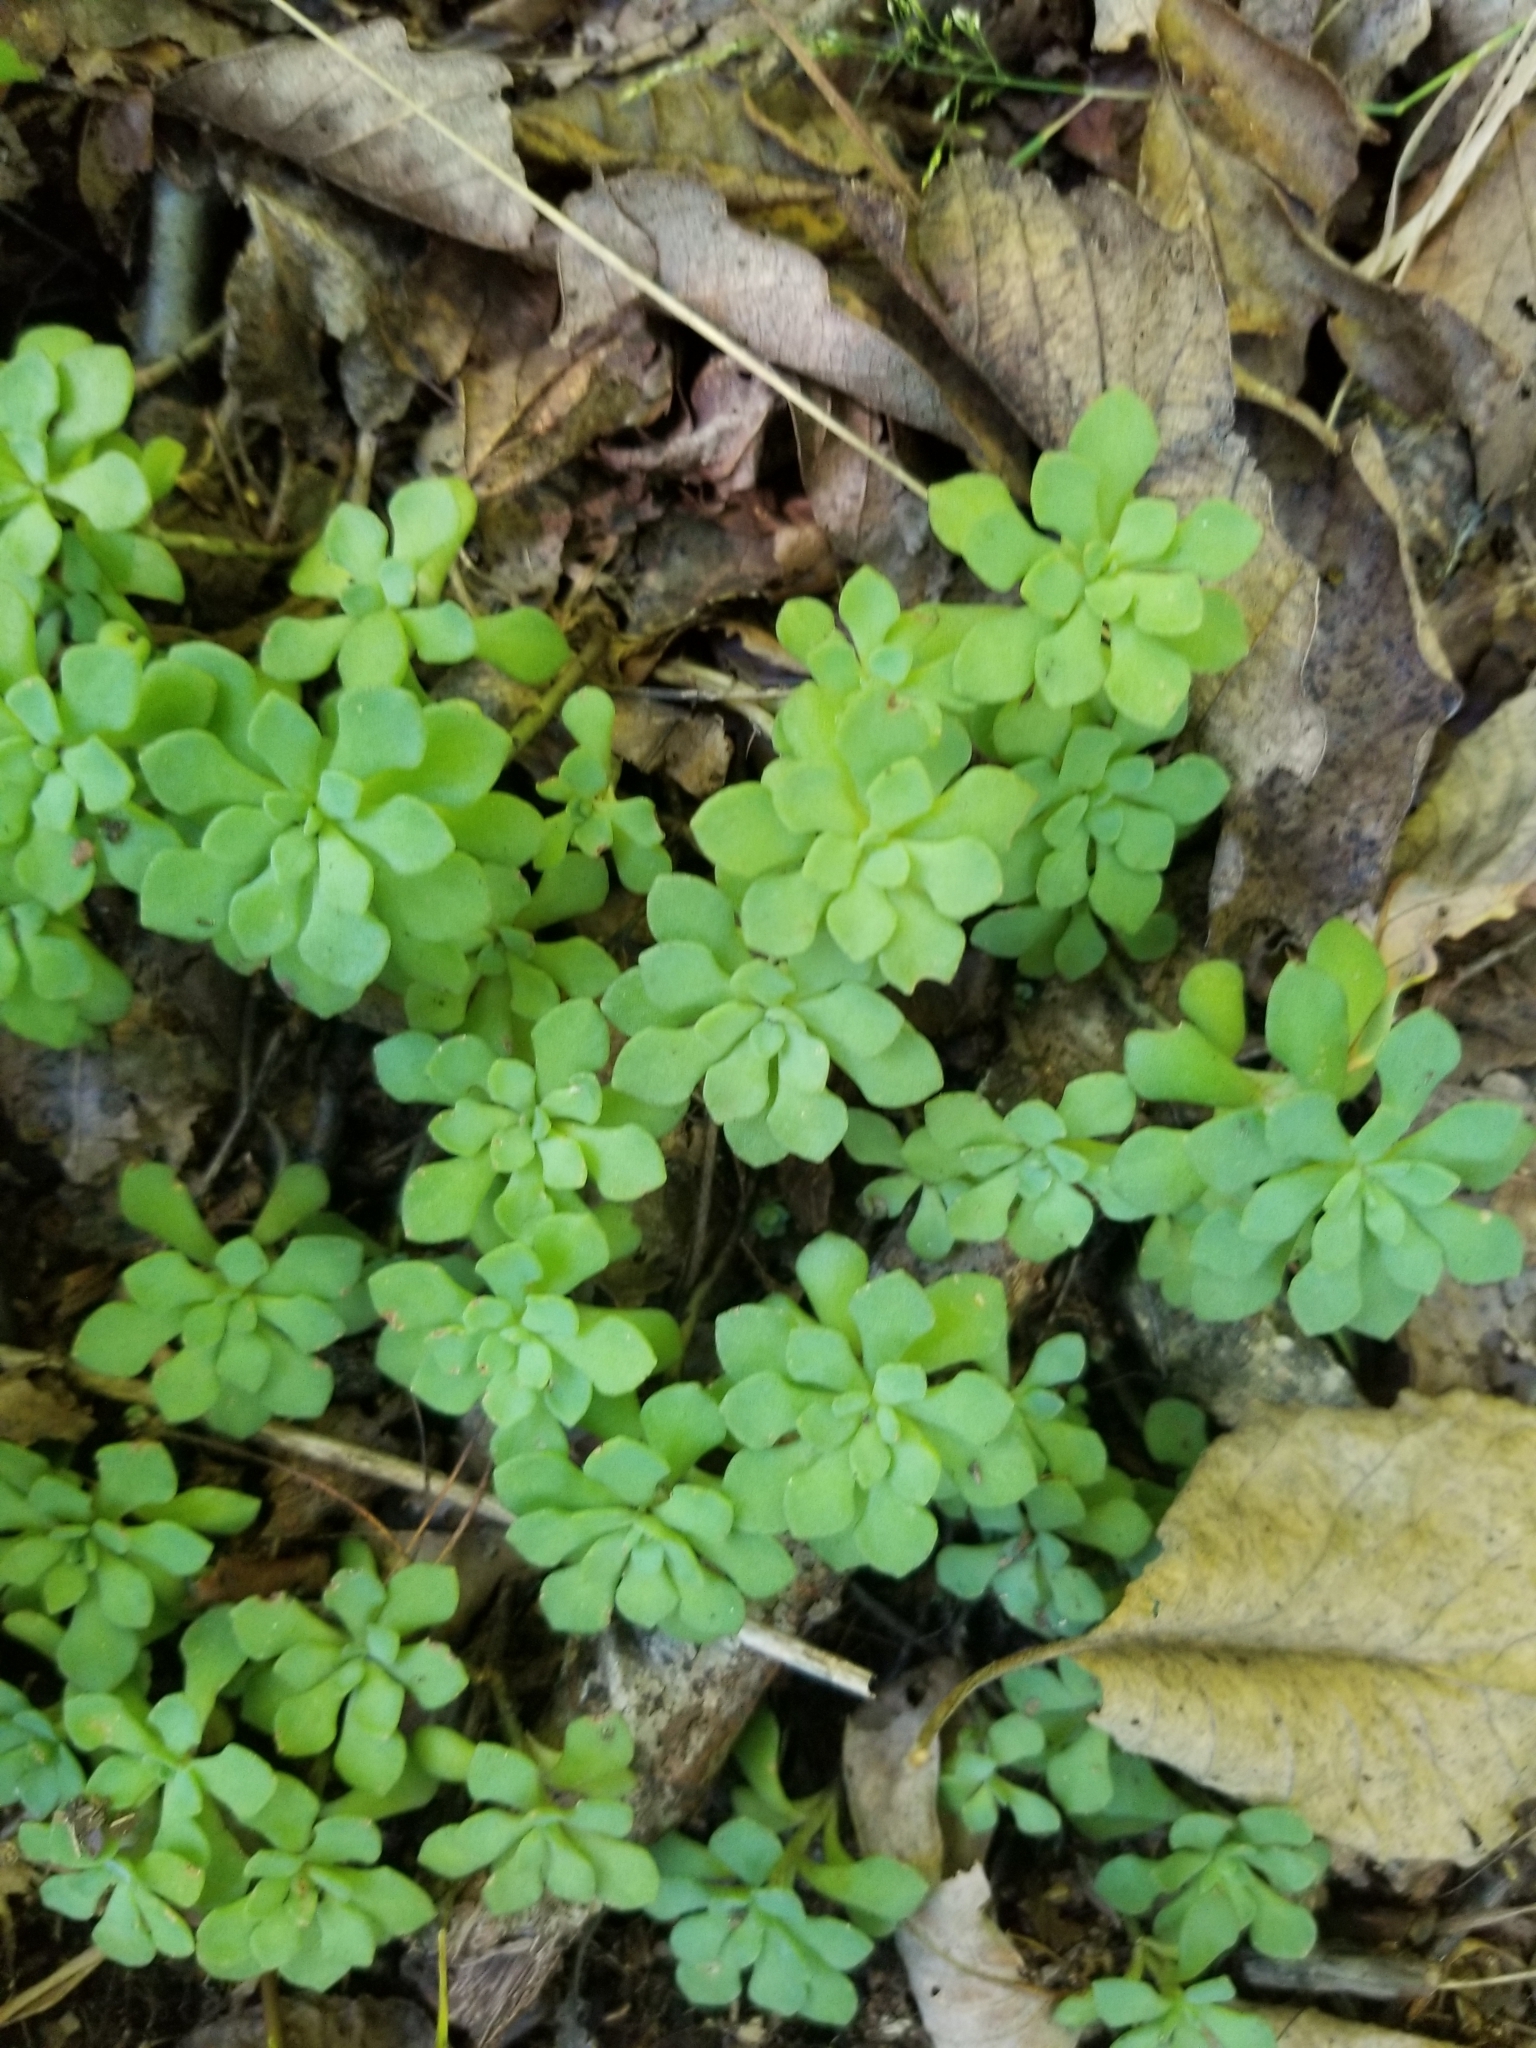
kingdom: Plantae
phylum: Tracheophyta
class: Magnoliopsida
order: Saxifragales
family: Crassulaceae
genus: Sedum
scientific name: Sedum glaucophyllum
